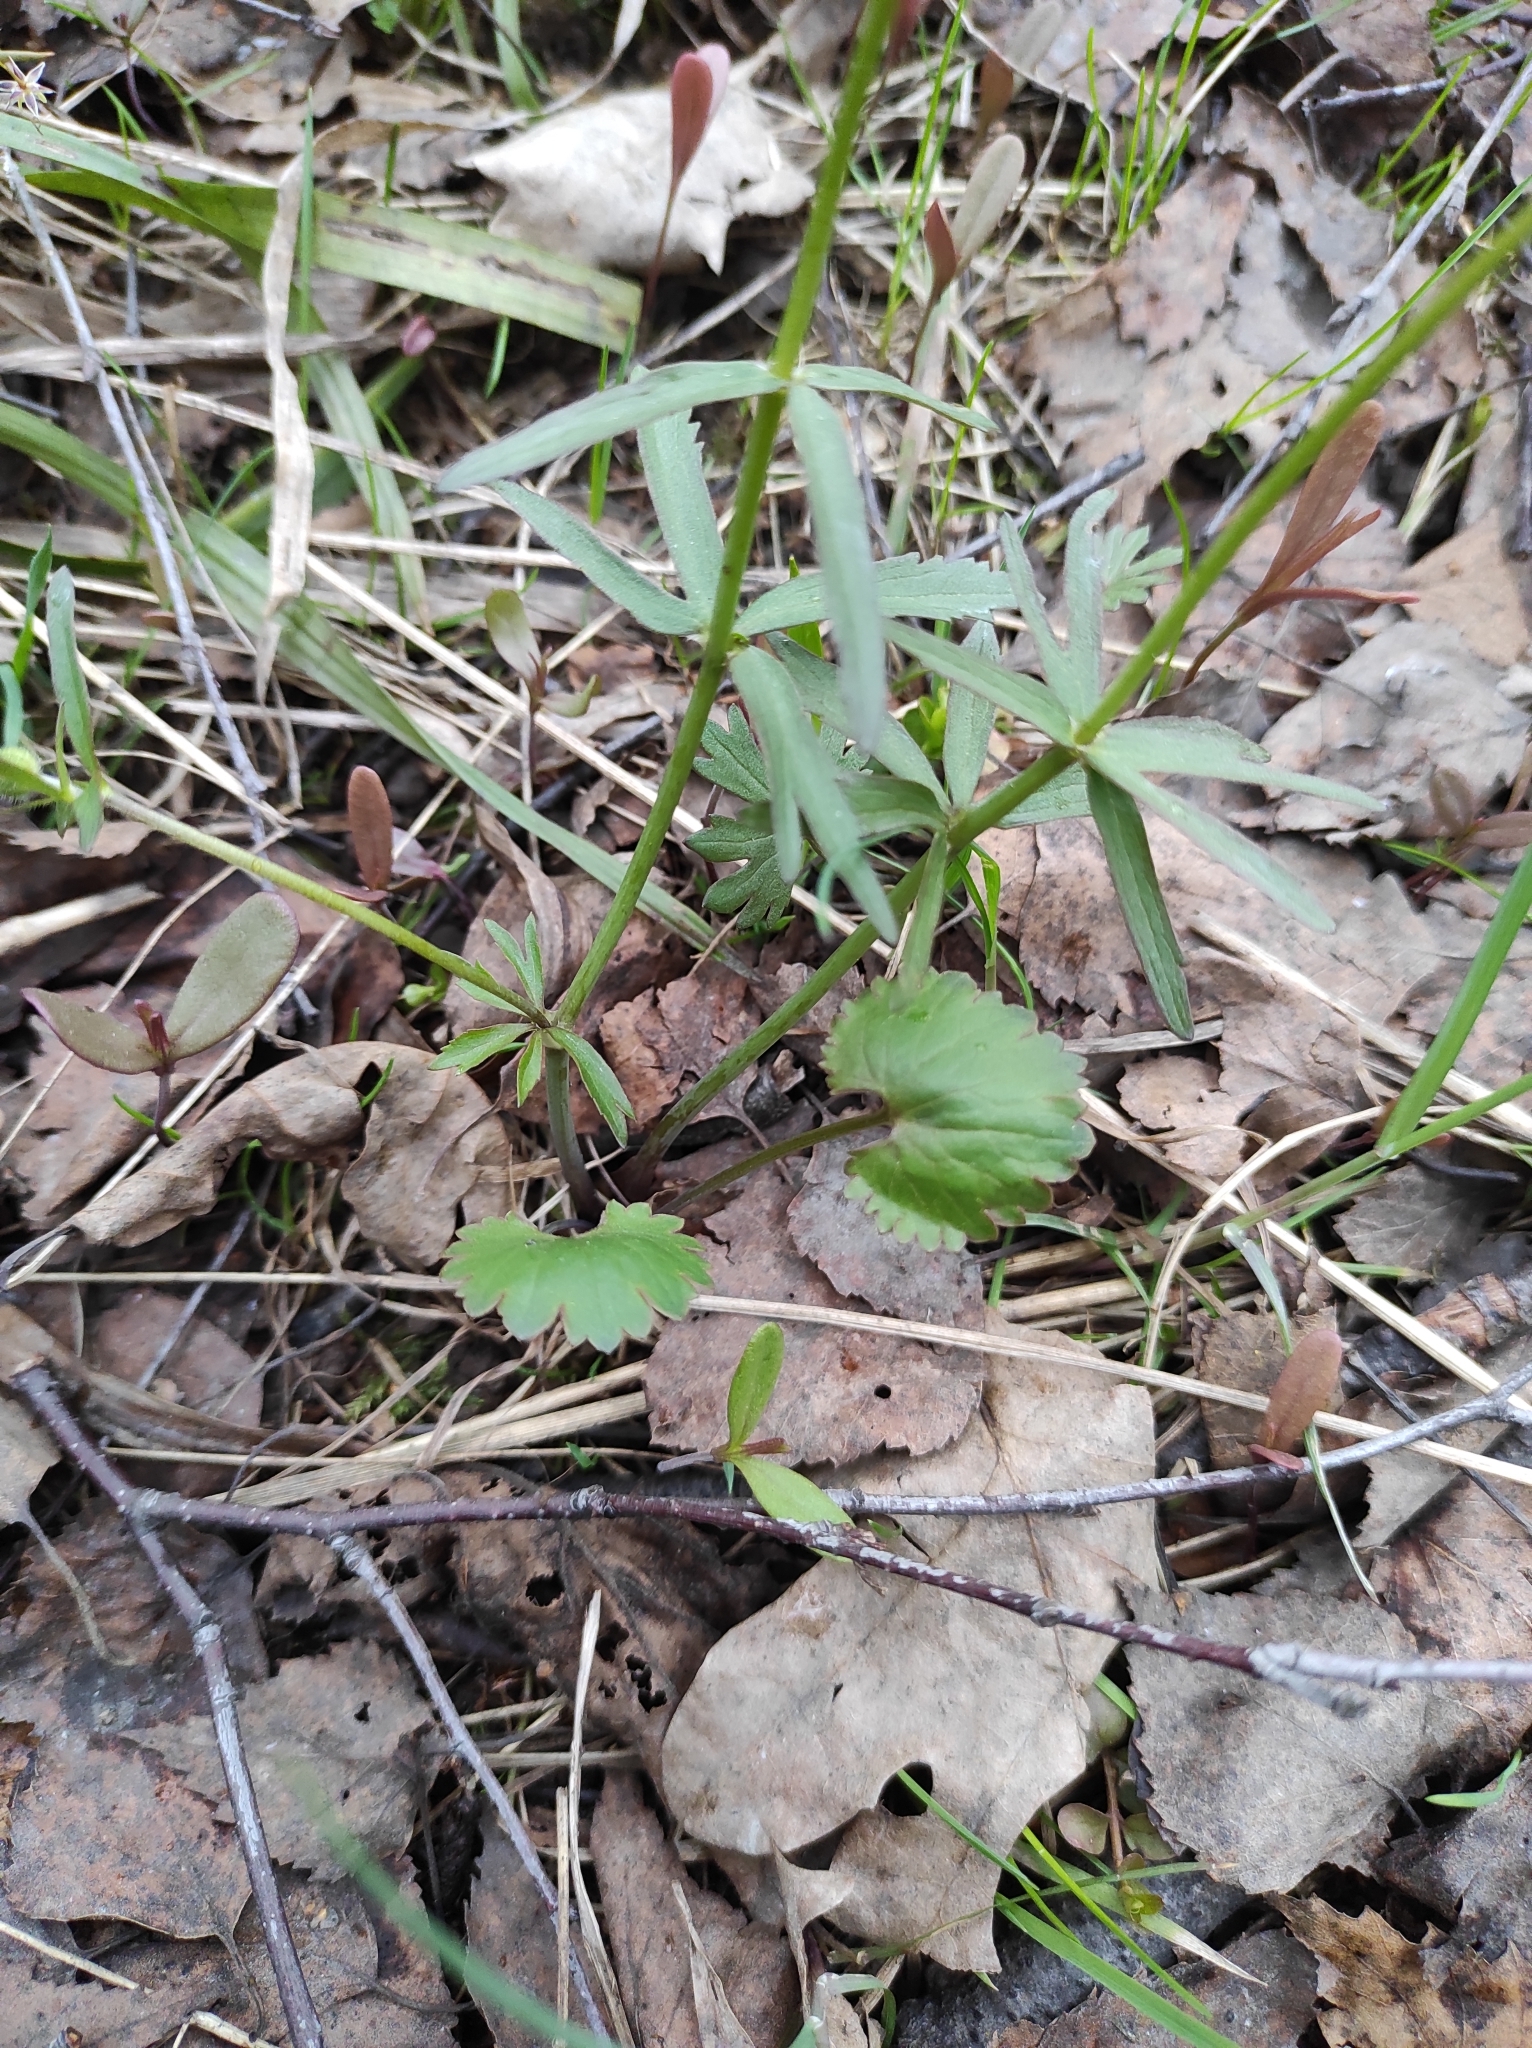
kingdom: Plantae
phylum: Tracheophyta
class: Magnoliopsida
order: Ranunculales
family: Ranunculaceae
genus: Ranunculus
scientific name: Ranunculus cassubicus
